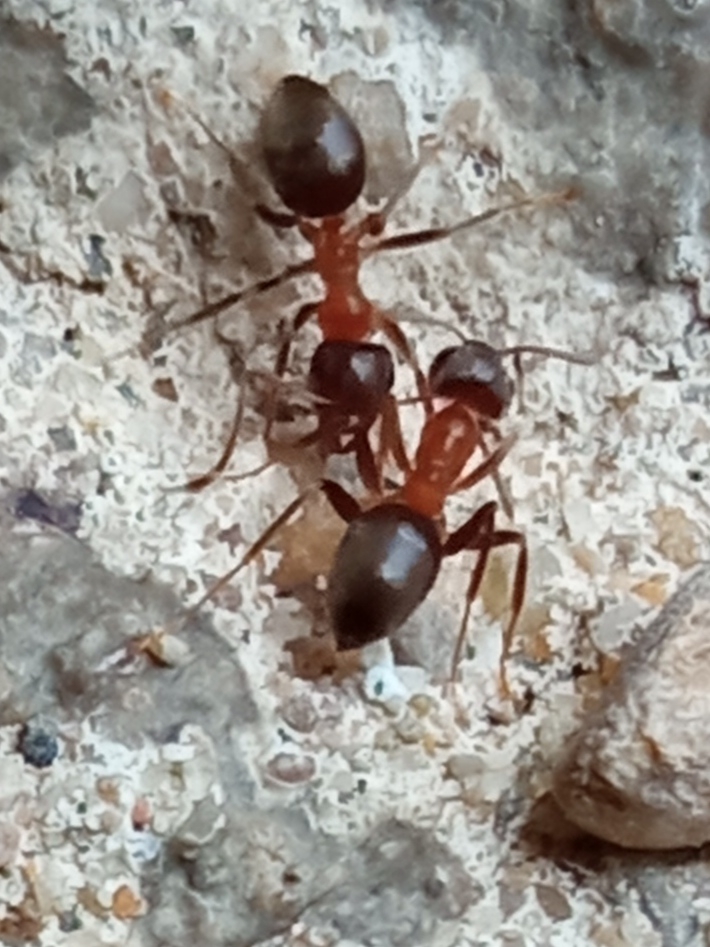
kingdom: Animalia
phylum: Arthropoda
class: Insecta
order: Hymenoptera
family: Formicidae
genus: Lasius
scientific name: Lasius emarginatus
